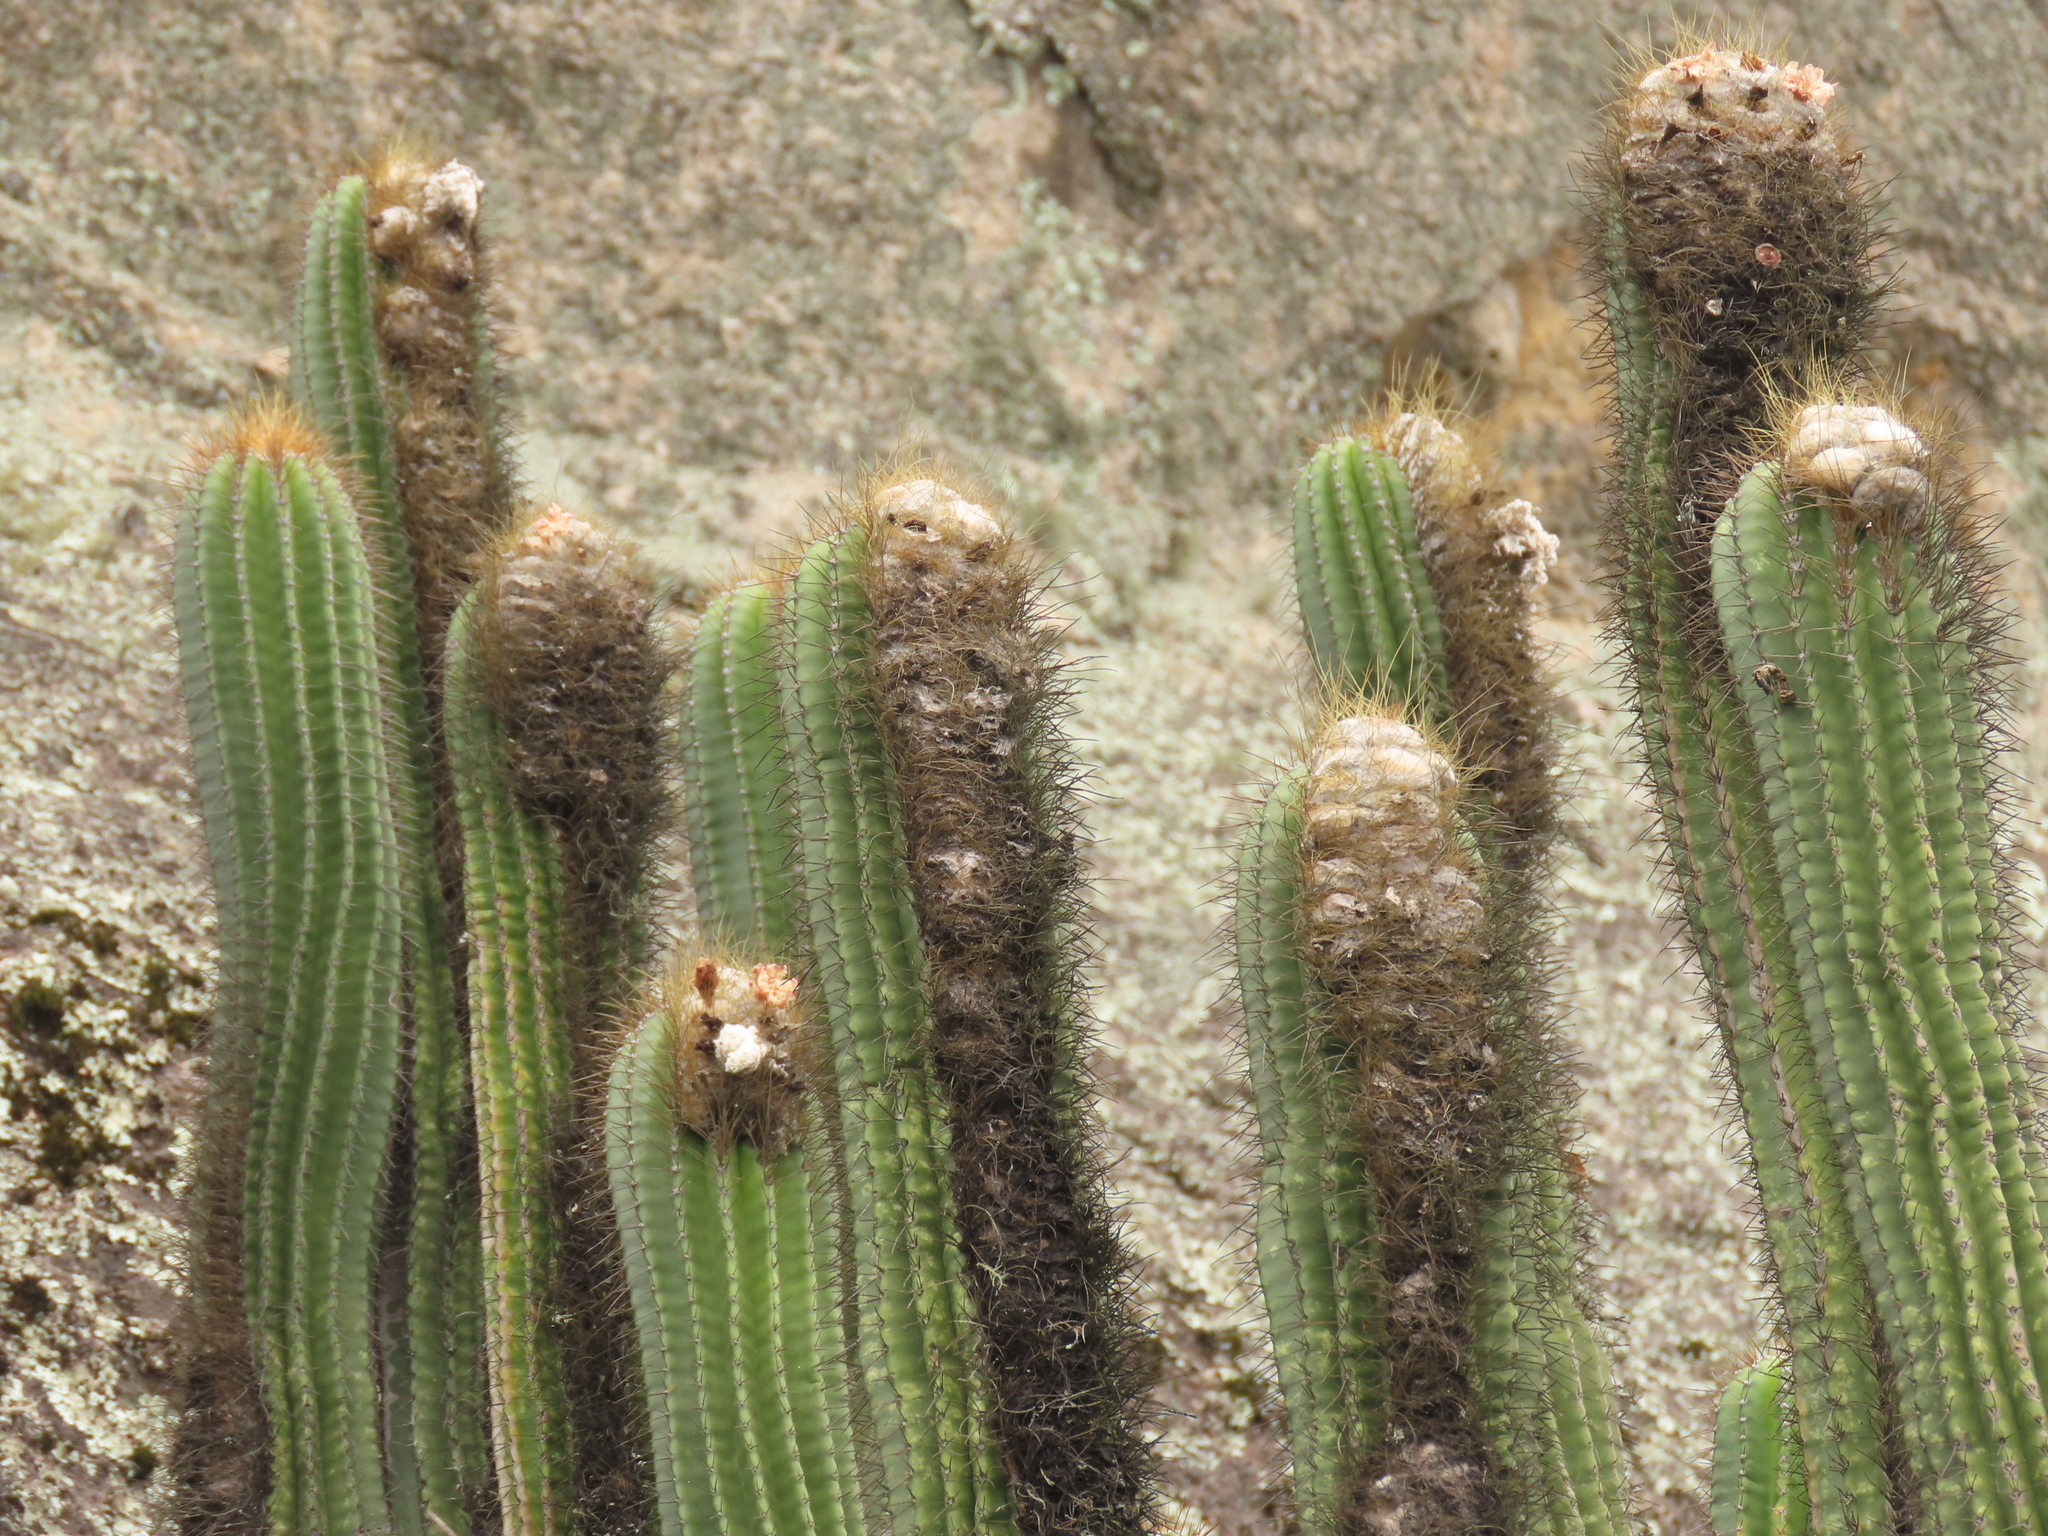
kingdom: Plantae
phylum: Tracheophyta
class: Magnoliopsida
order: Caryophyllales
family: Cactaceae
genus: Coleocephalocereus
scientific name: Coleocephalocereus fluminensis
